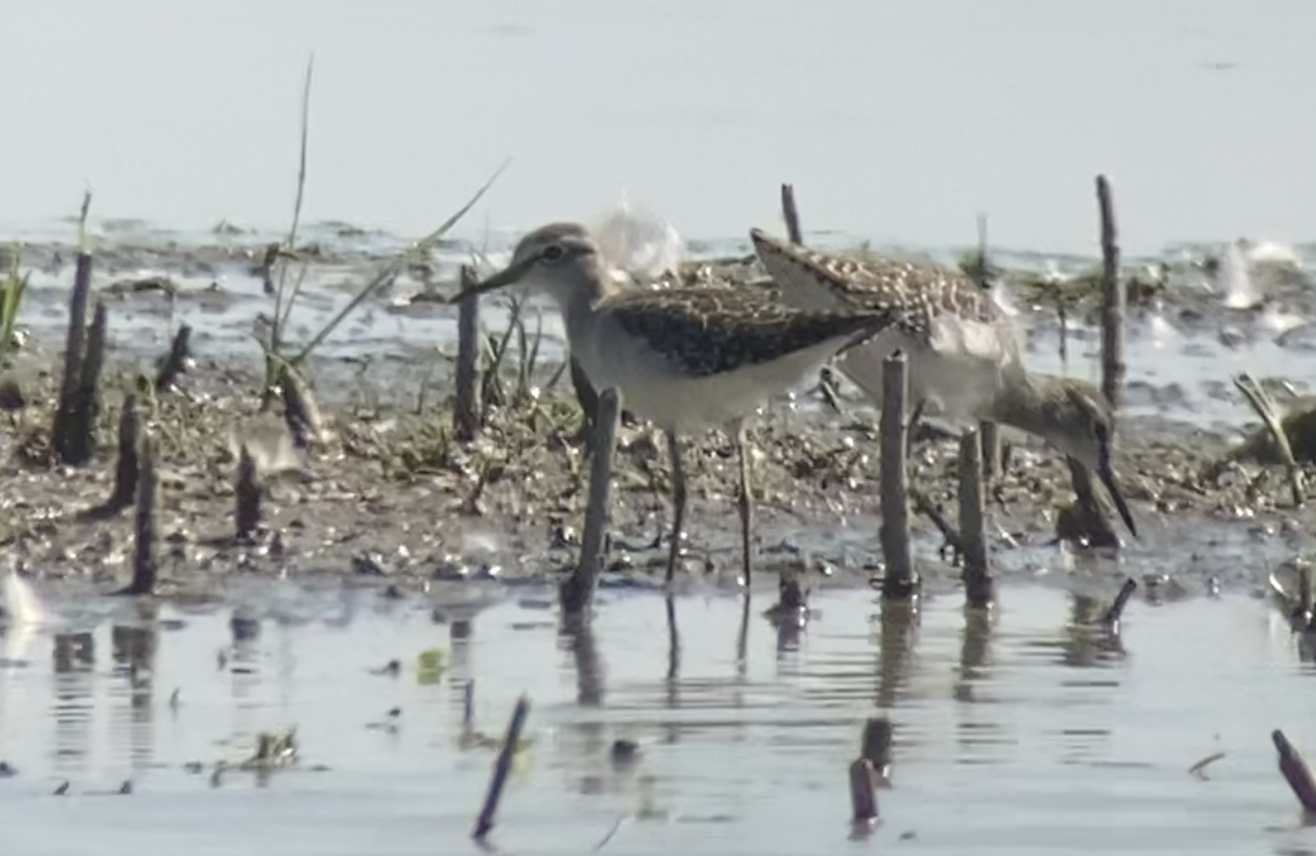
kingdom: Animalia
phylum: Chordata
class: Aves
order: Charadriiformes
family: Scolopacidae
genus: Tringa
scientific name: Tringa glareola
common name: Wood sandpiper
